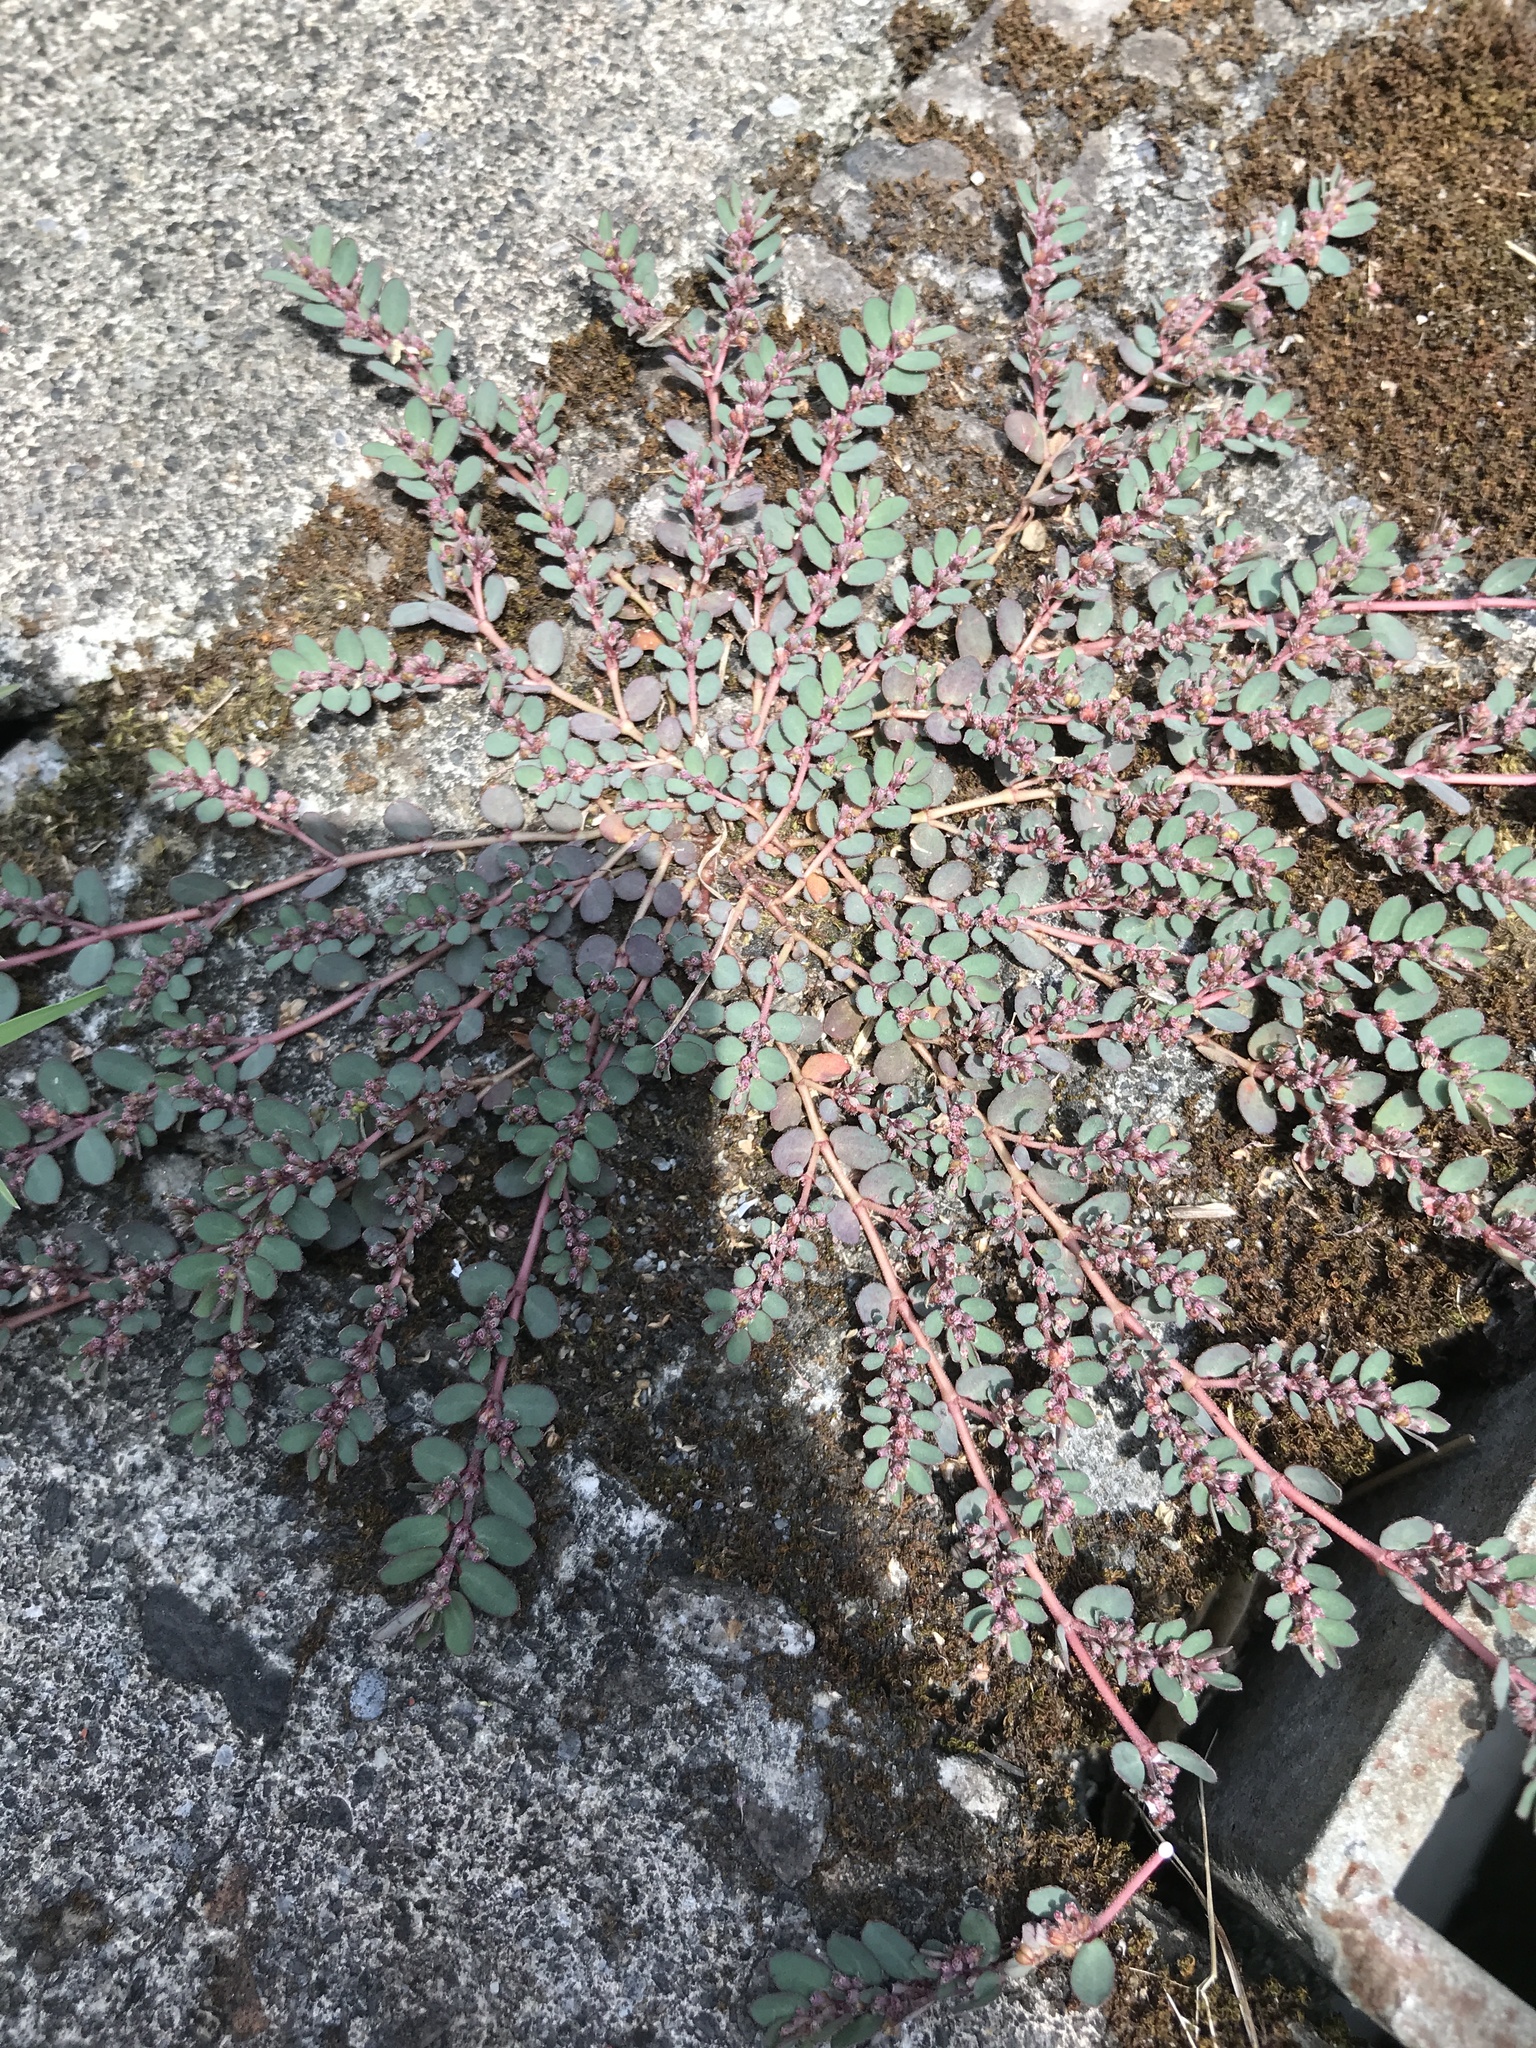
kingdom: Plantae
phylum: Tracheophyta
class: Magnoliopsida
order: Malpighiales
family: Euphorbiaceae
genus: Euphorbia
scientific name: Euphorbia prostrata
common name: Prostrate sandmat
